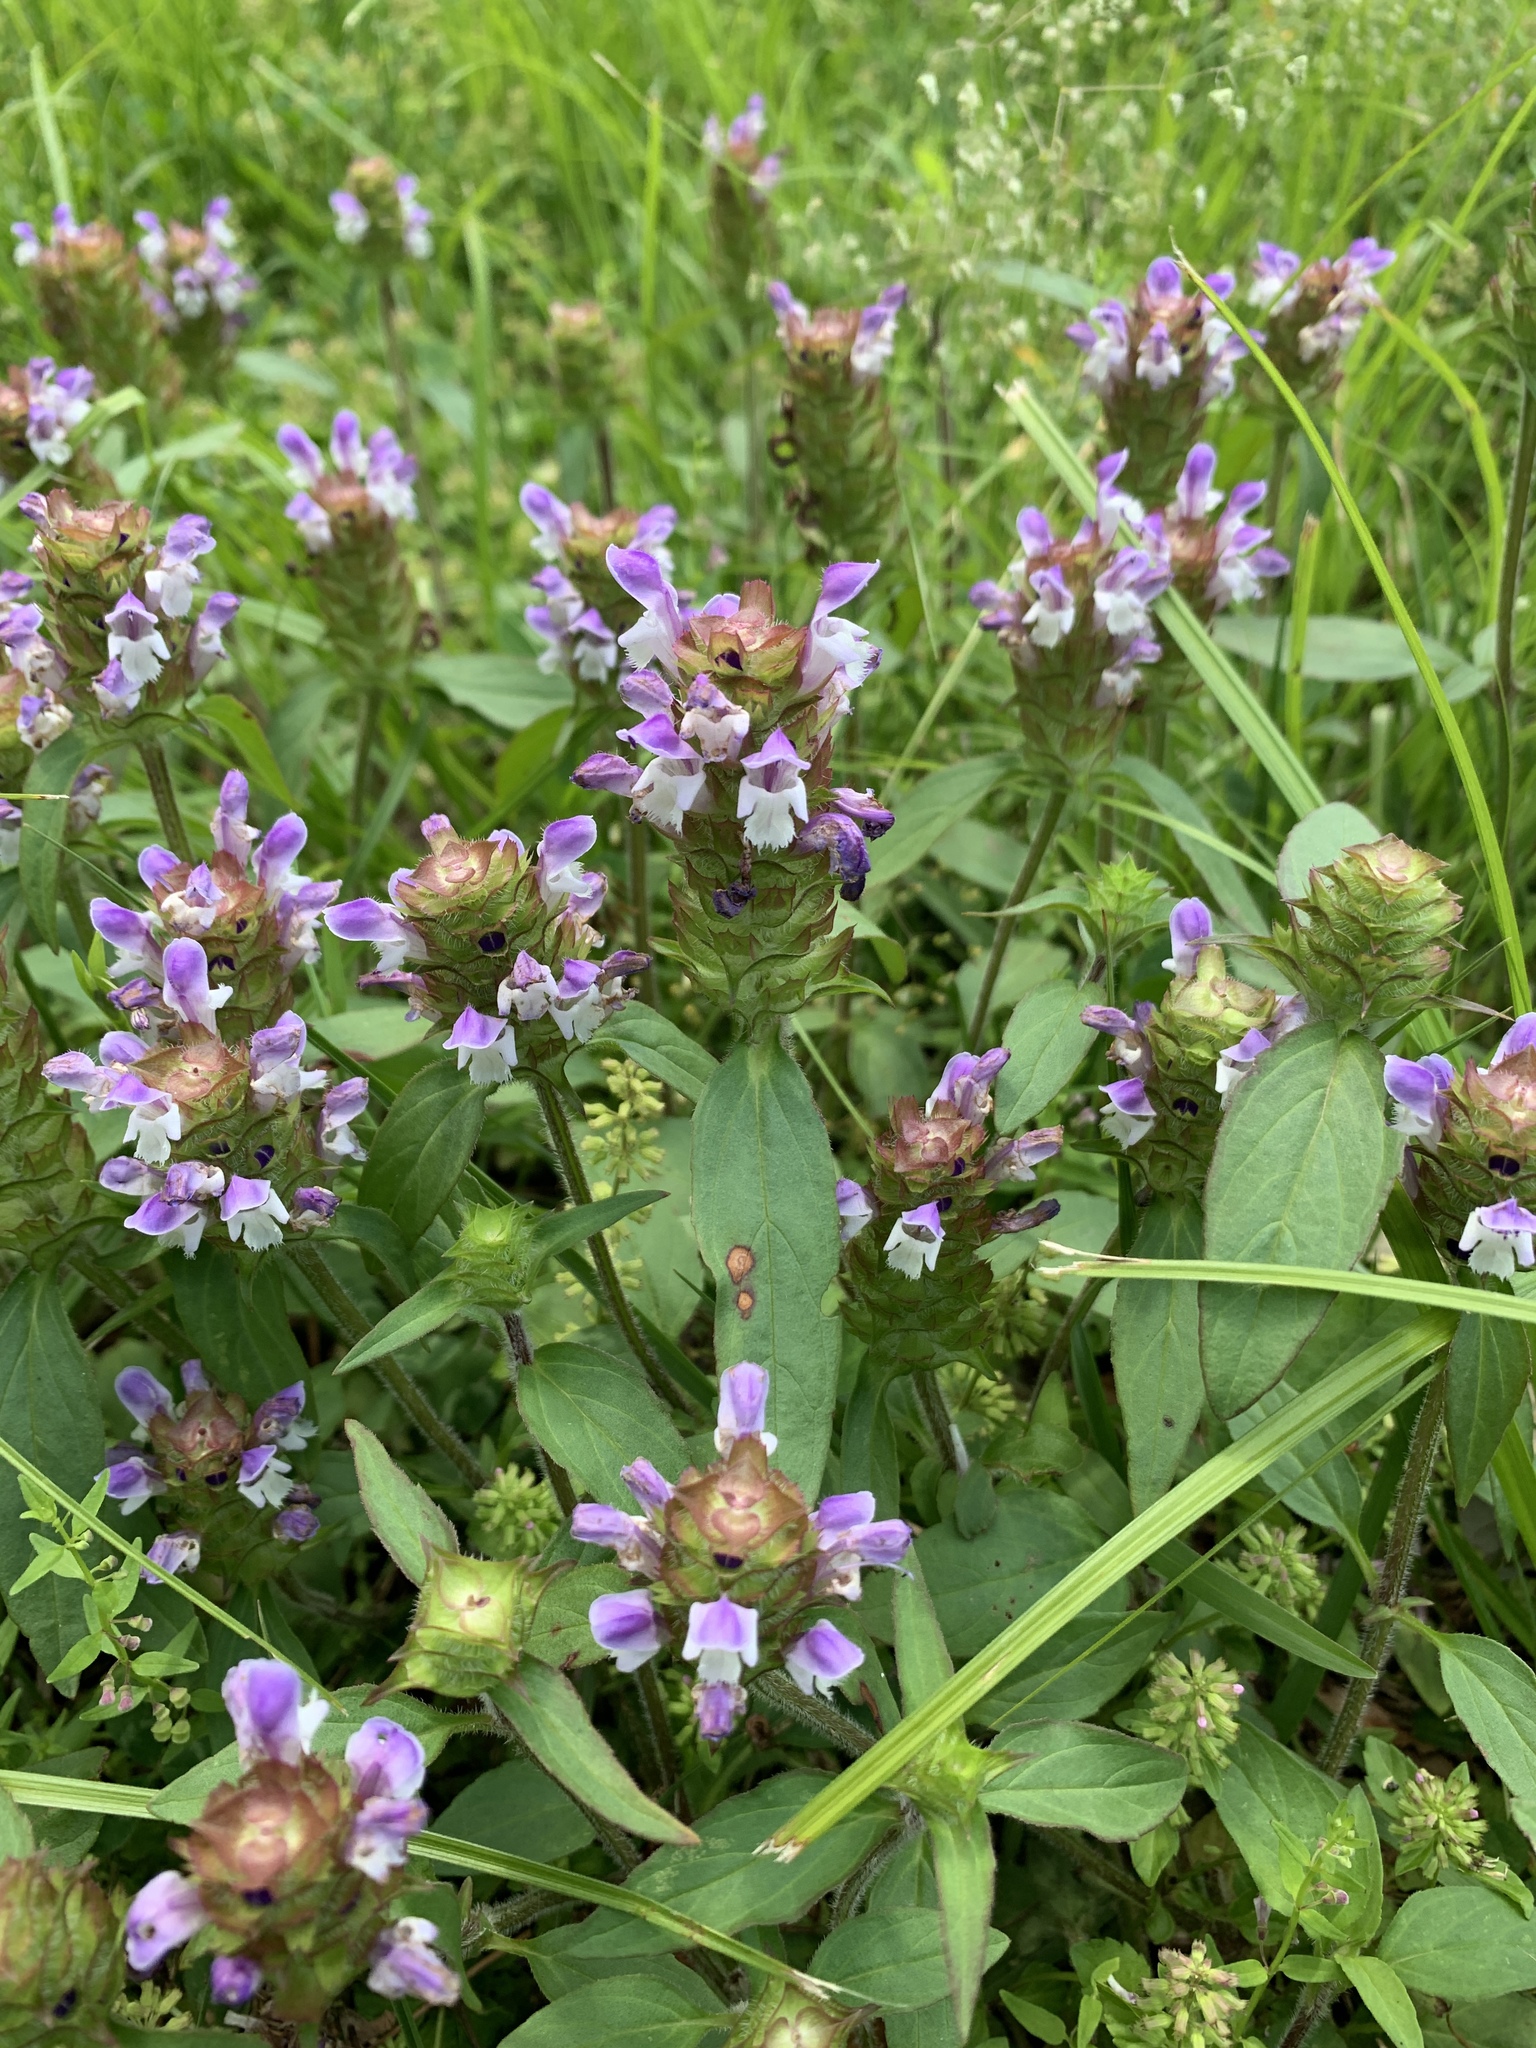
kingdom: Plantae
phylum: Tracheophyta
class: Magnoliopsida
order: Lamiales
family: Lamiaceae
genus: Prunella
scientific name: Prunella vulgaris
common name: Heal-all
